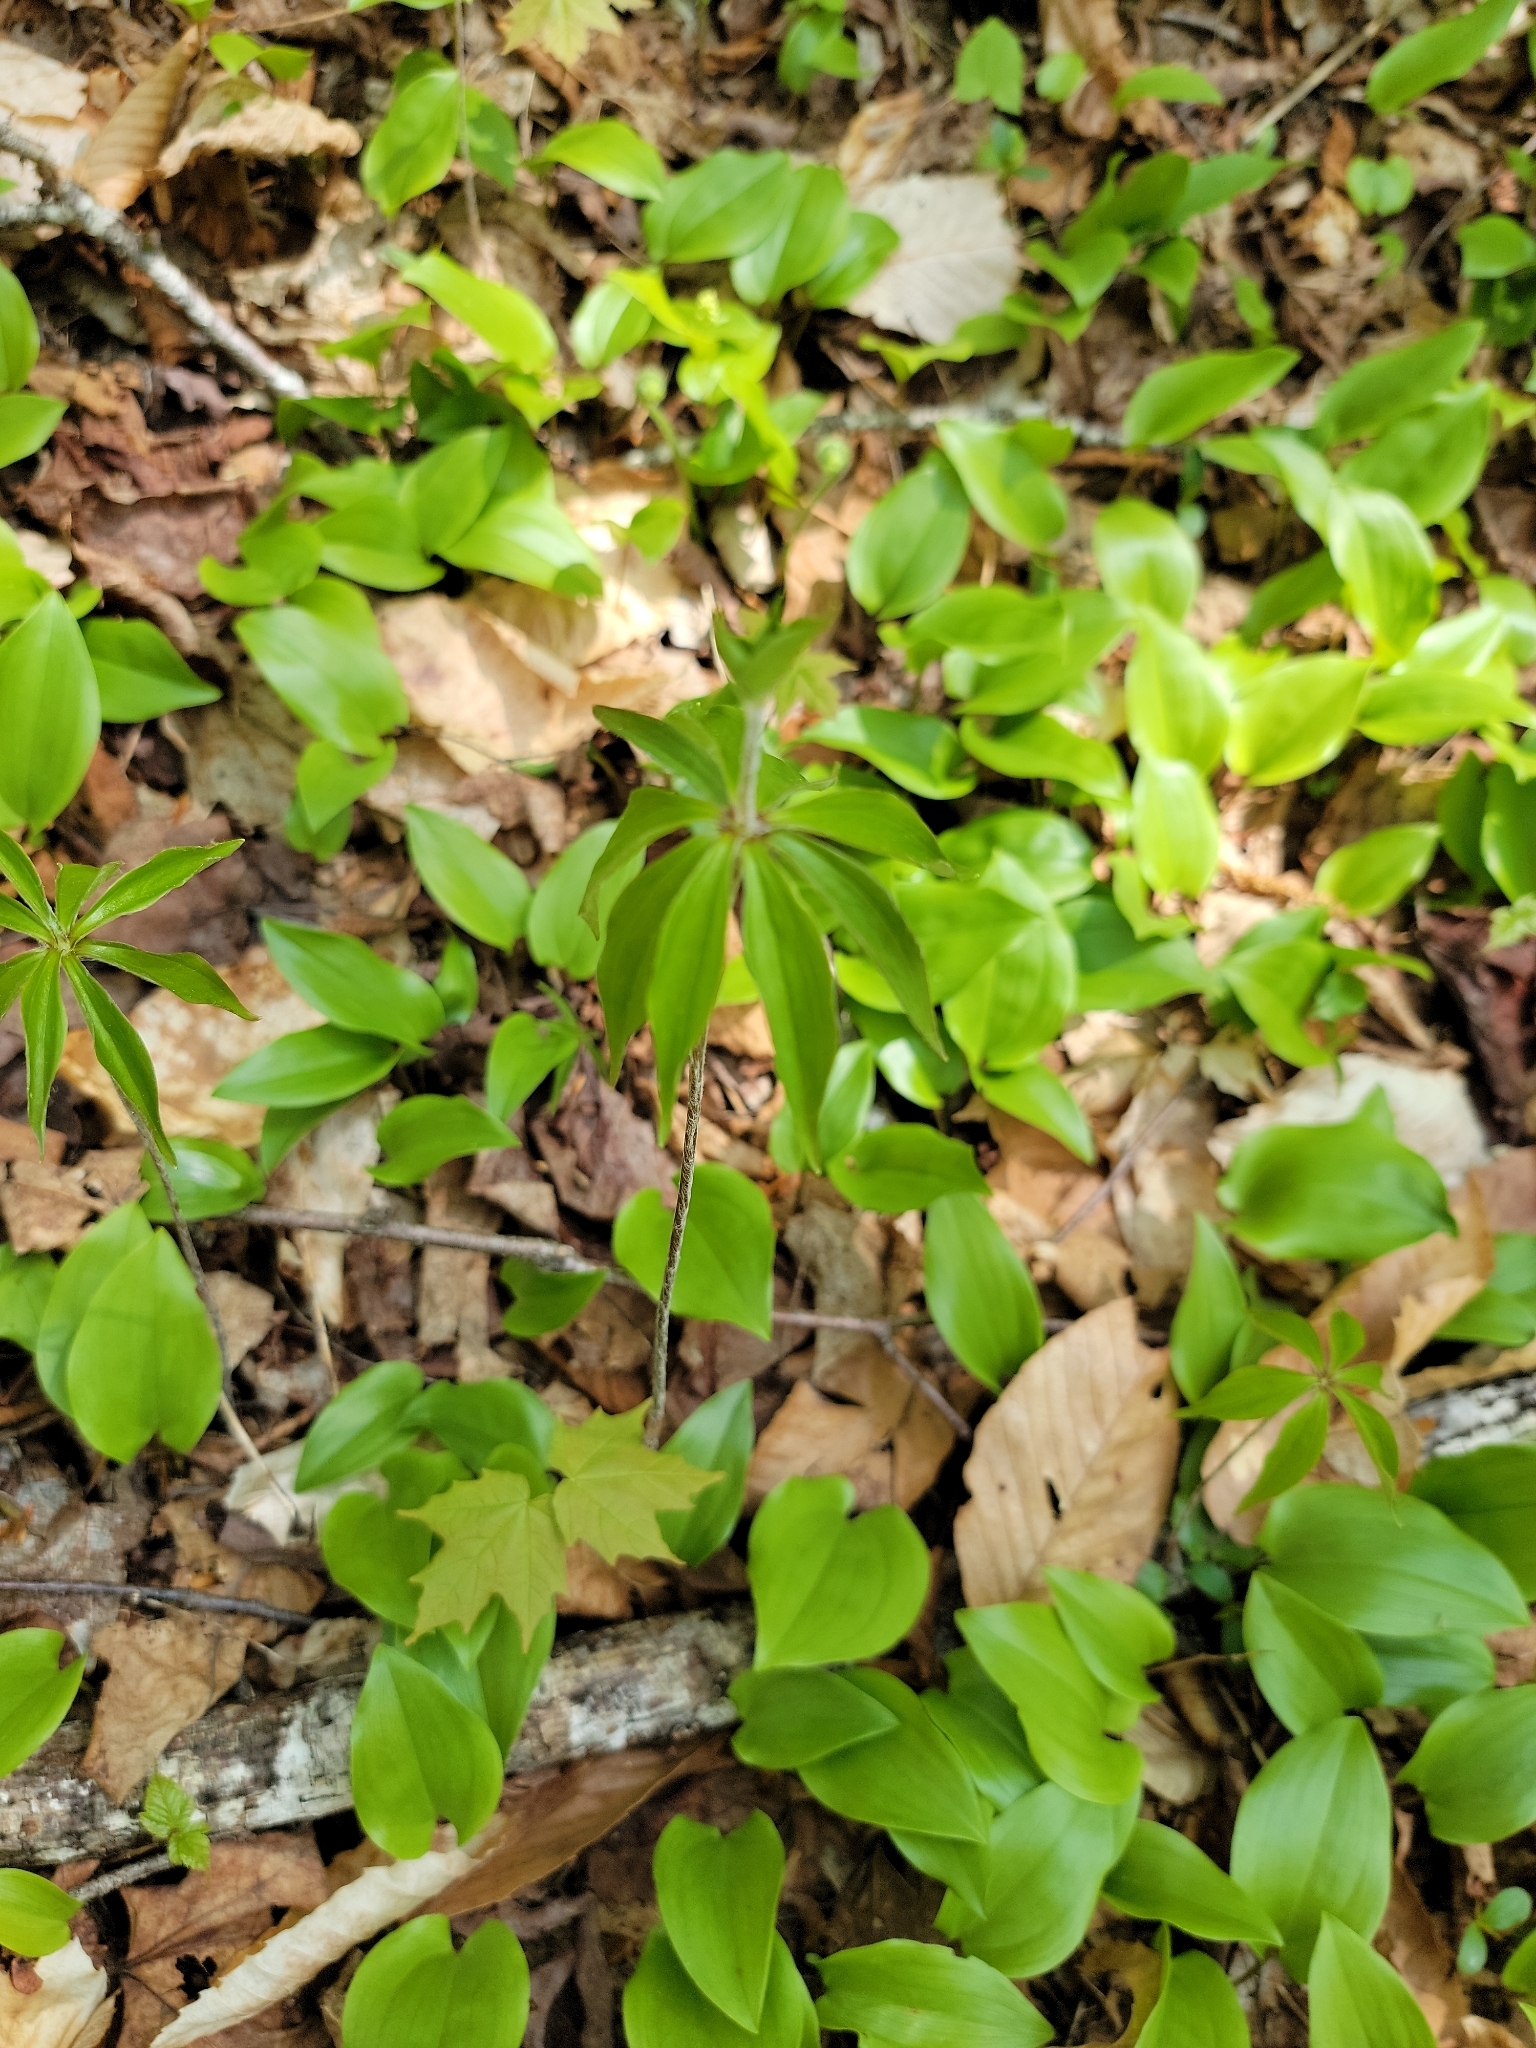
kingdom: Plantae
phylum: Tracheophyta
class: Liliopsida
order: Liliales
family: Liliaceae
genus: Medeola
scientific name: Medeola virginiana
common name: Indian cucumber-root
